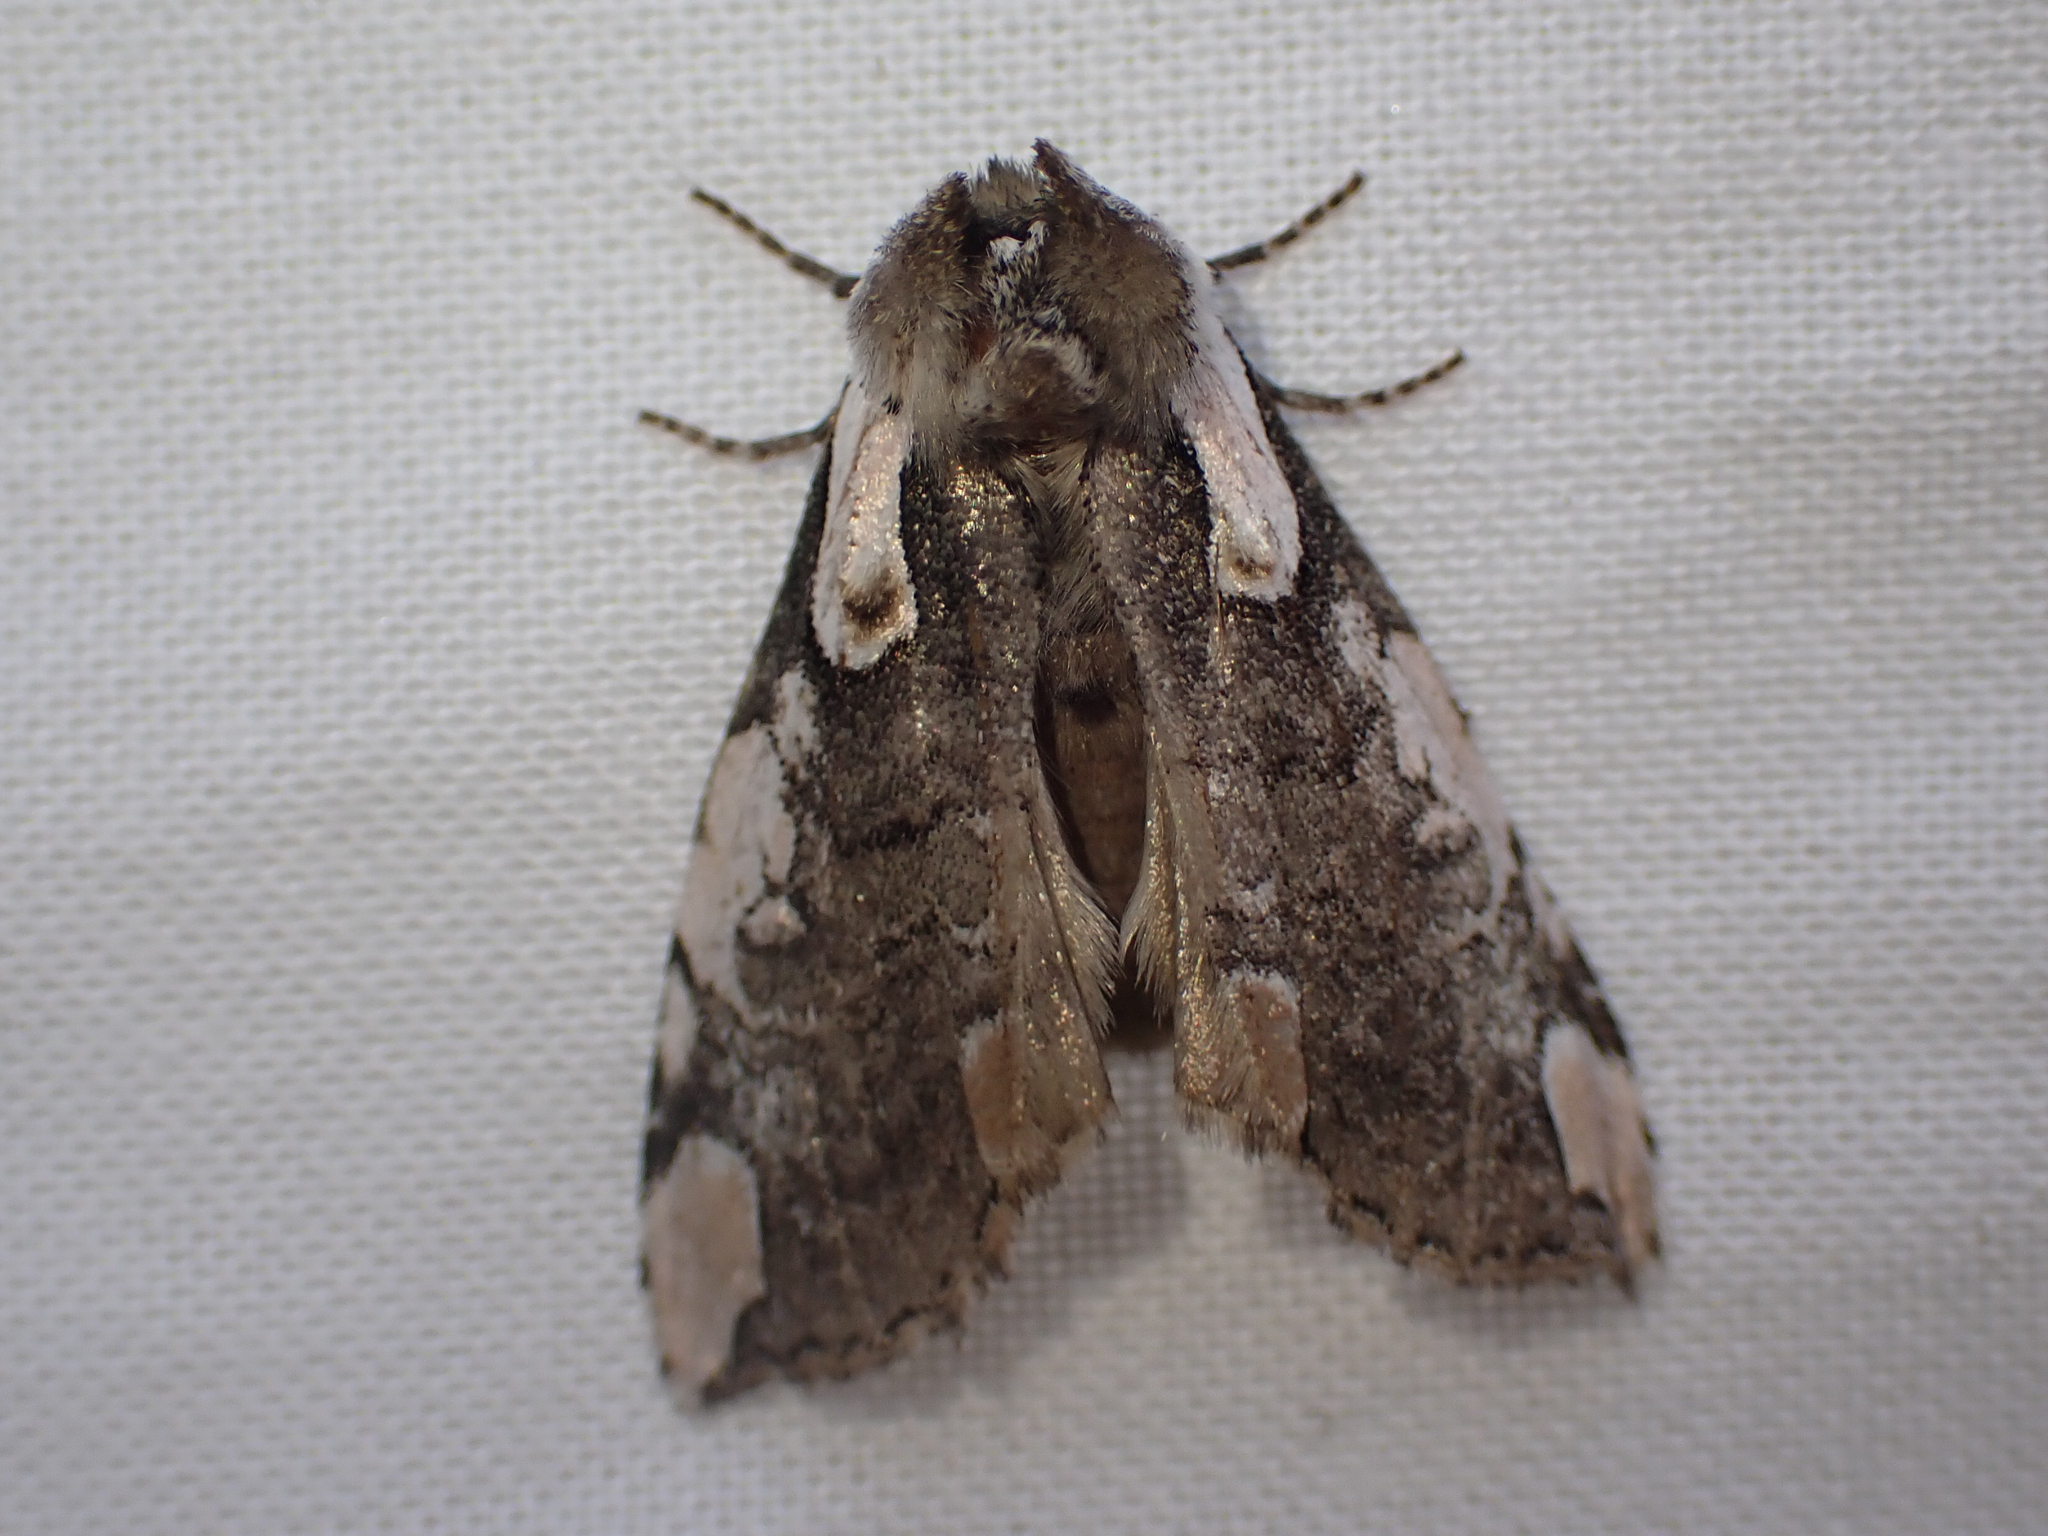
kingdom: Animalia
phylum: Arthropoda
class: Insecta
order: Lepidoptera
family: Drepanidae
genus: Euthyatira
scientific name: Euthyatira pudens
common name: Dogwood thyatirid moth
